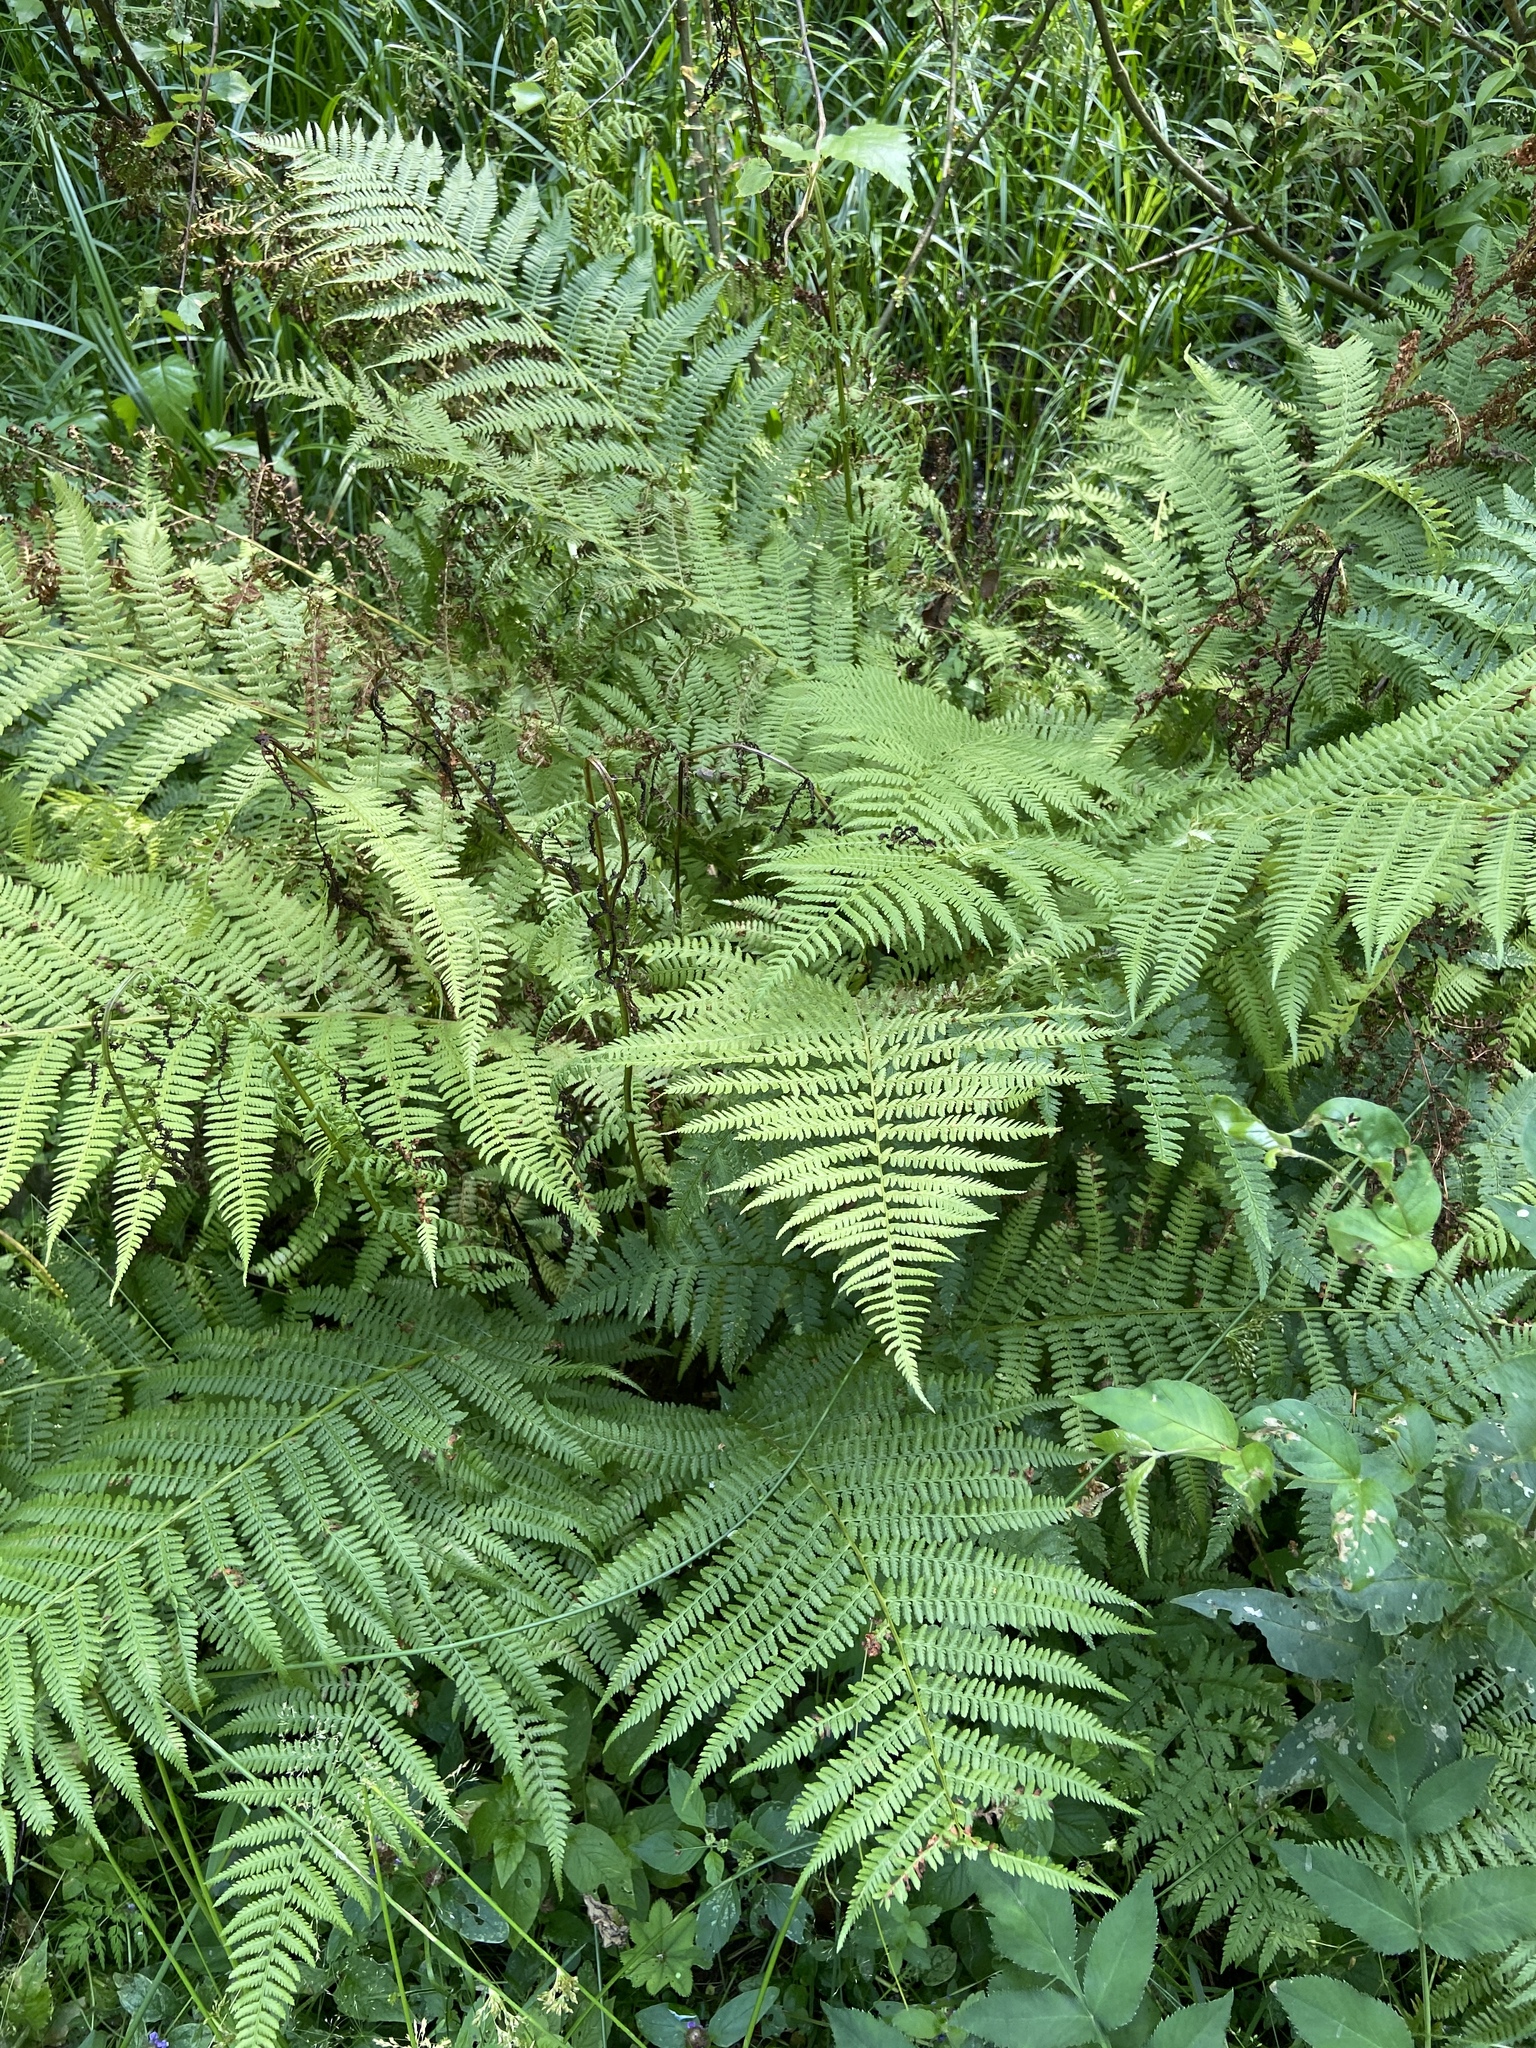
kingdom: Plantae
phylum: Tracheophyta
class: Polypodiopsida
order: Polypodiales
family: Athyriaceae
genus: Athyrium
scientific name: Athyrium filix-femina
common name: Lady fern
